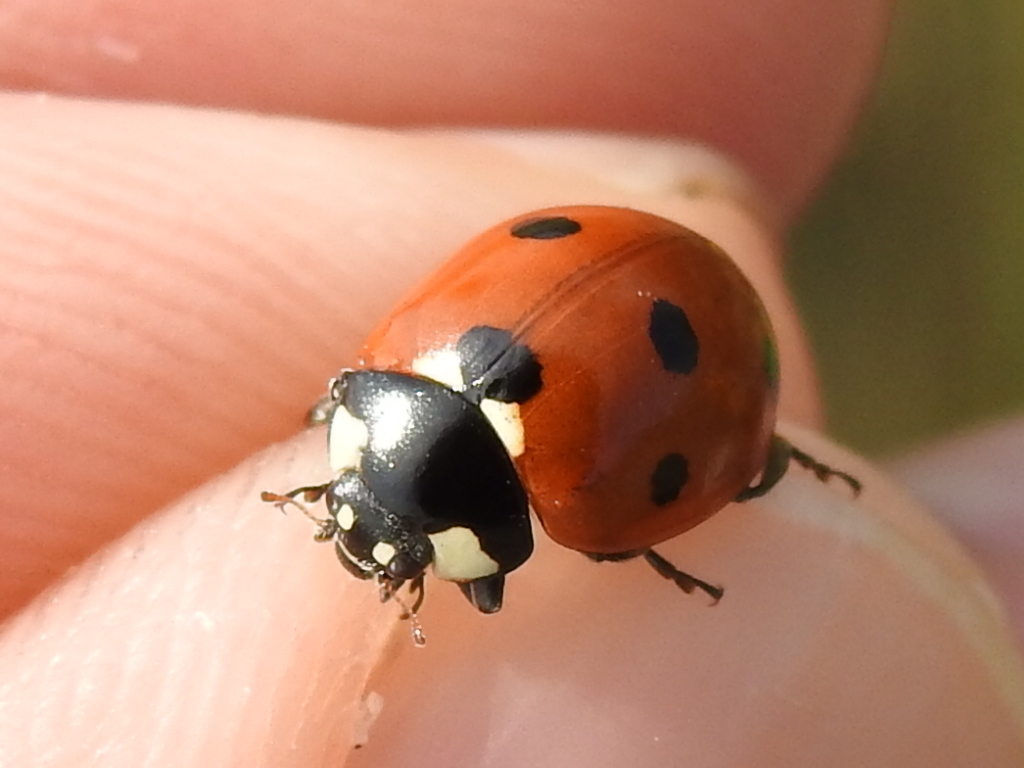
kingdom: Animalia
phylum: Arthropoda
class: Insecta
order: Coleoptera
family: Coccinellidae
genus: Coccinella
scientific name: Coccinella septempunctata
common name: Sevenspotted lady beetle
